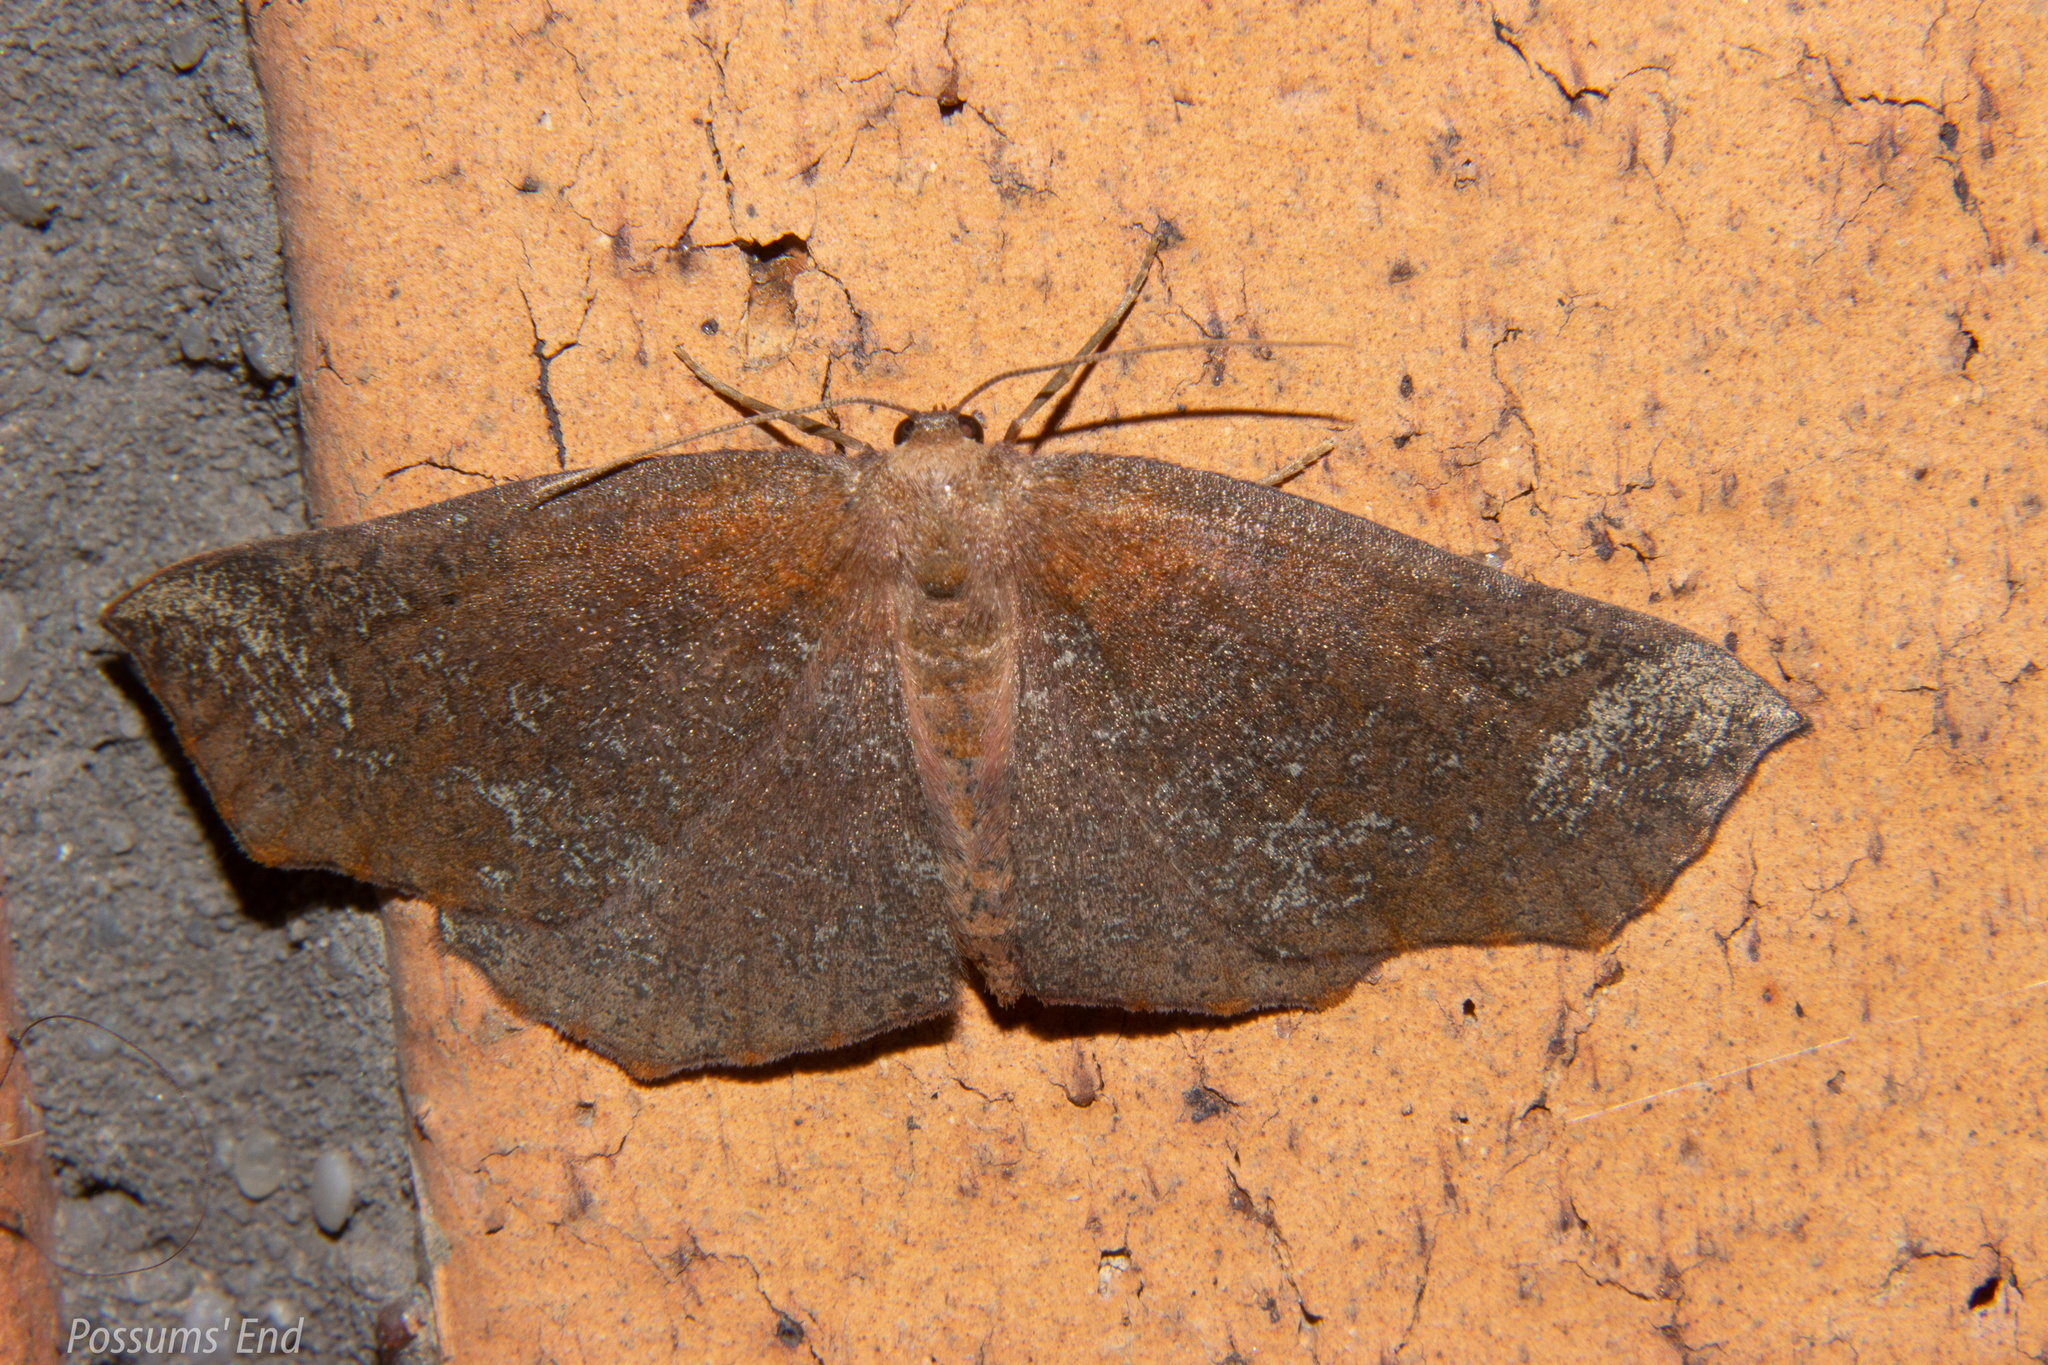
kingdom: Animalia
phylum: Arthropoda
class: Insecta
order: Lepidoptera
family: Geometridae
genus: Xyridacma
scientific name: Xyridacma ustaria
